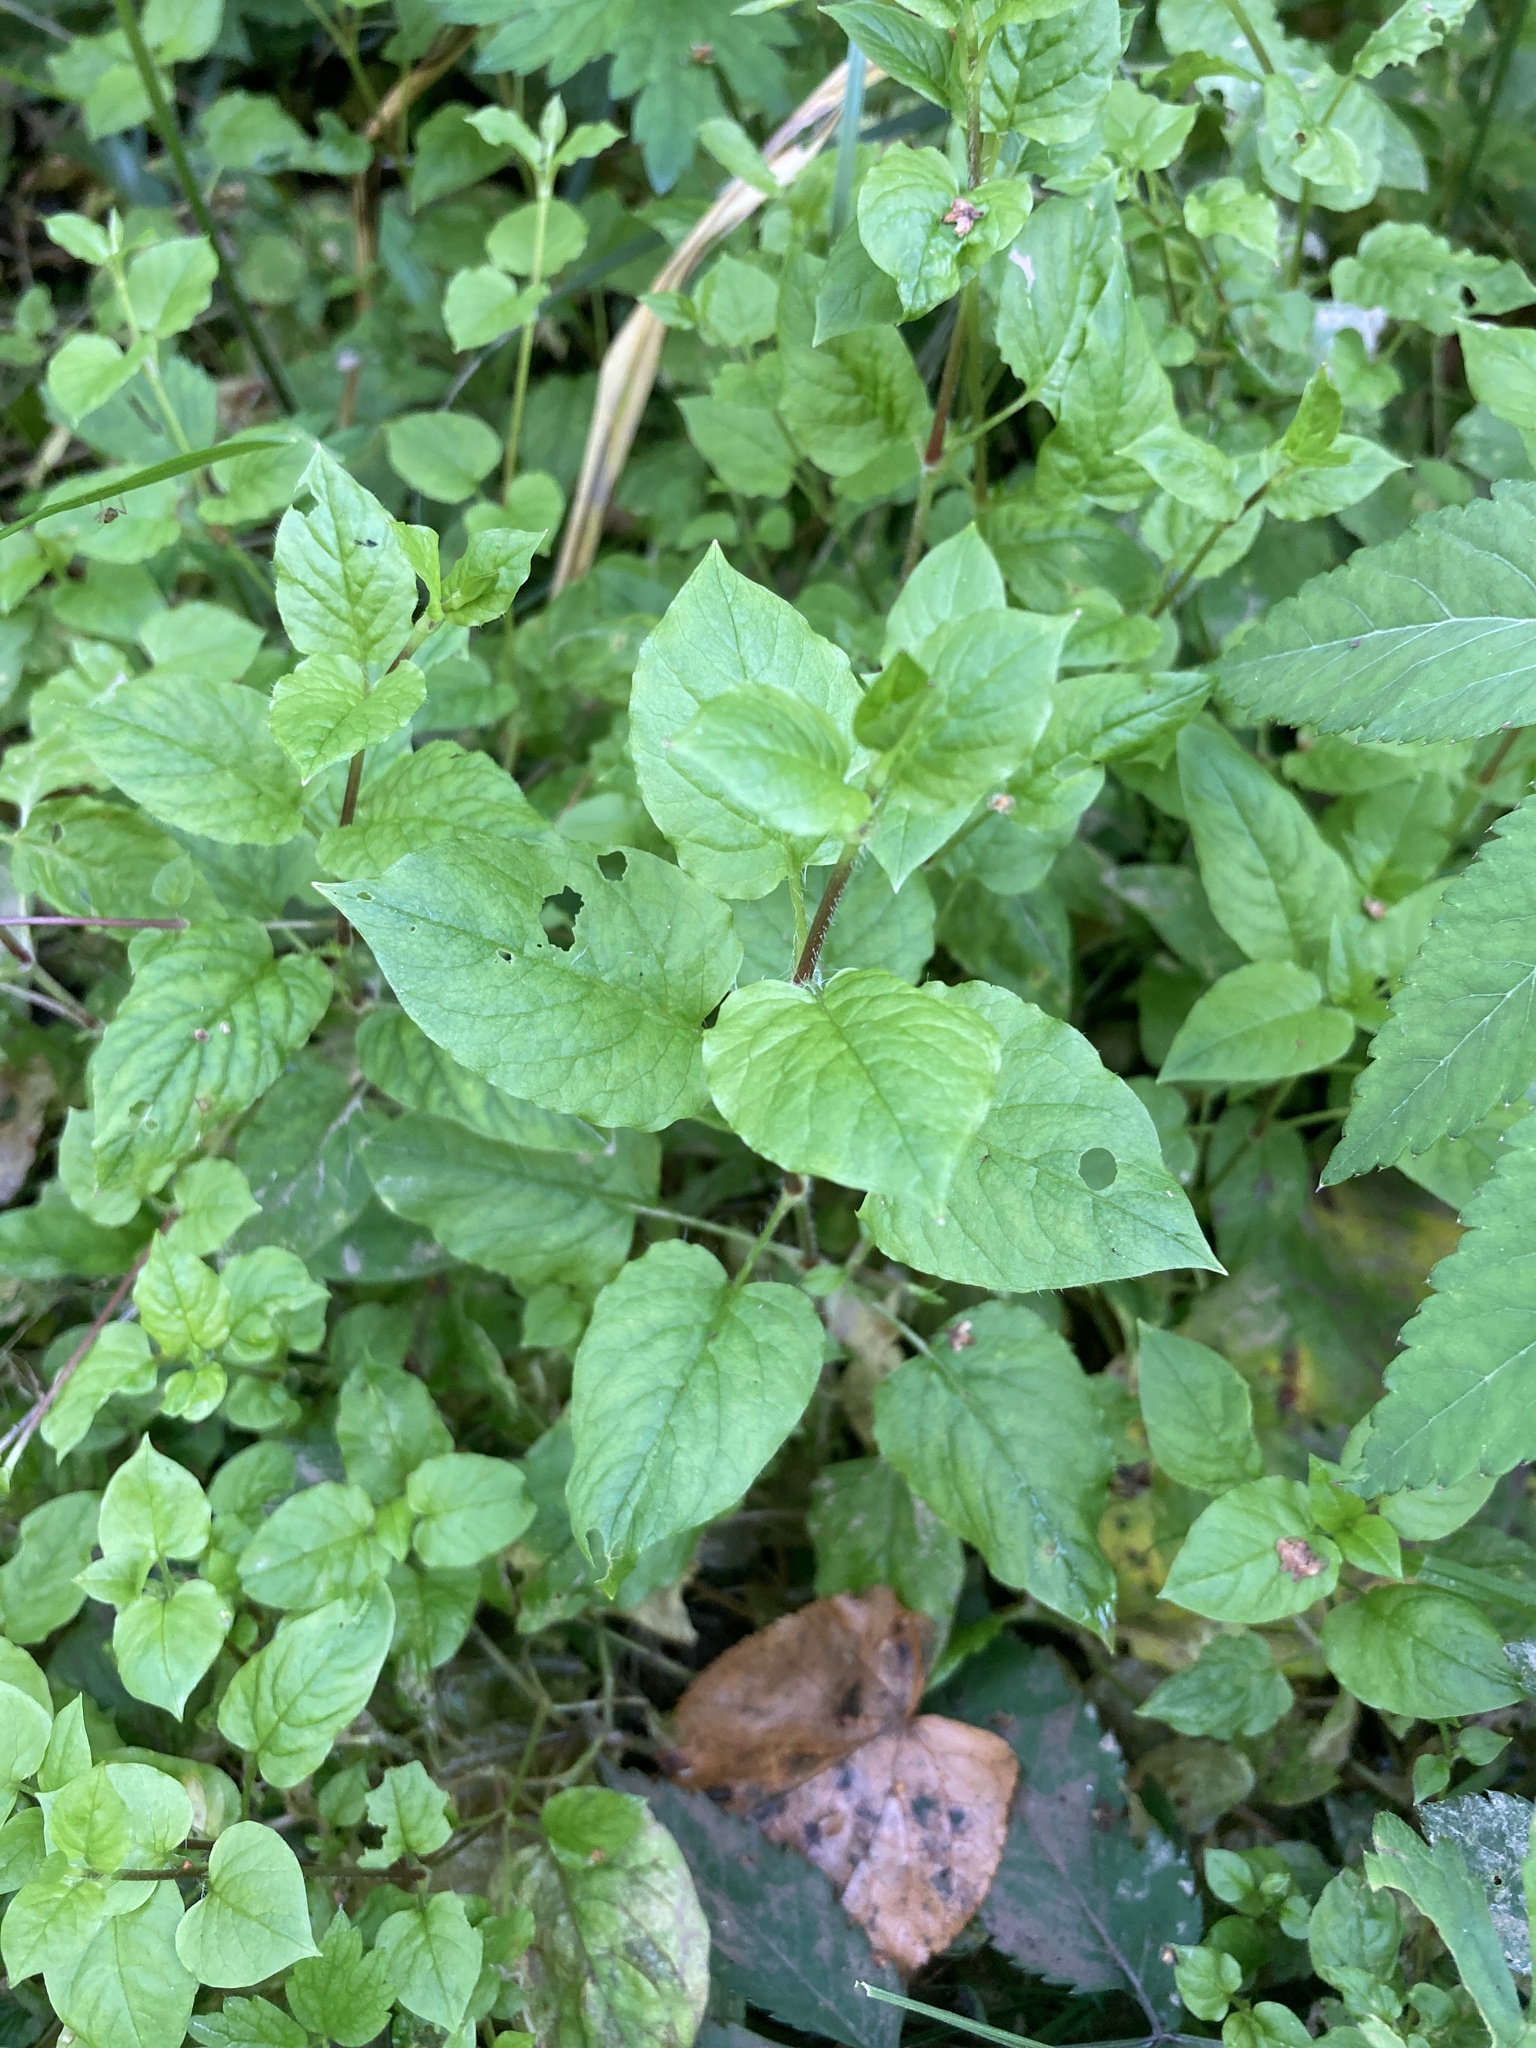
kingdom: Plantae
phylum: Tracheophyta
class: Magnoliopsida
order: Caryophyllales
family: Caryophyllaceae
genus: Stellaria
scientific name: Stellaria nemorum
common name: Wood stitchwort
